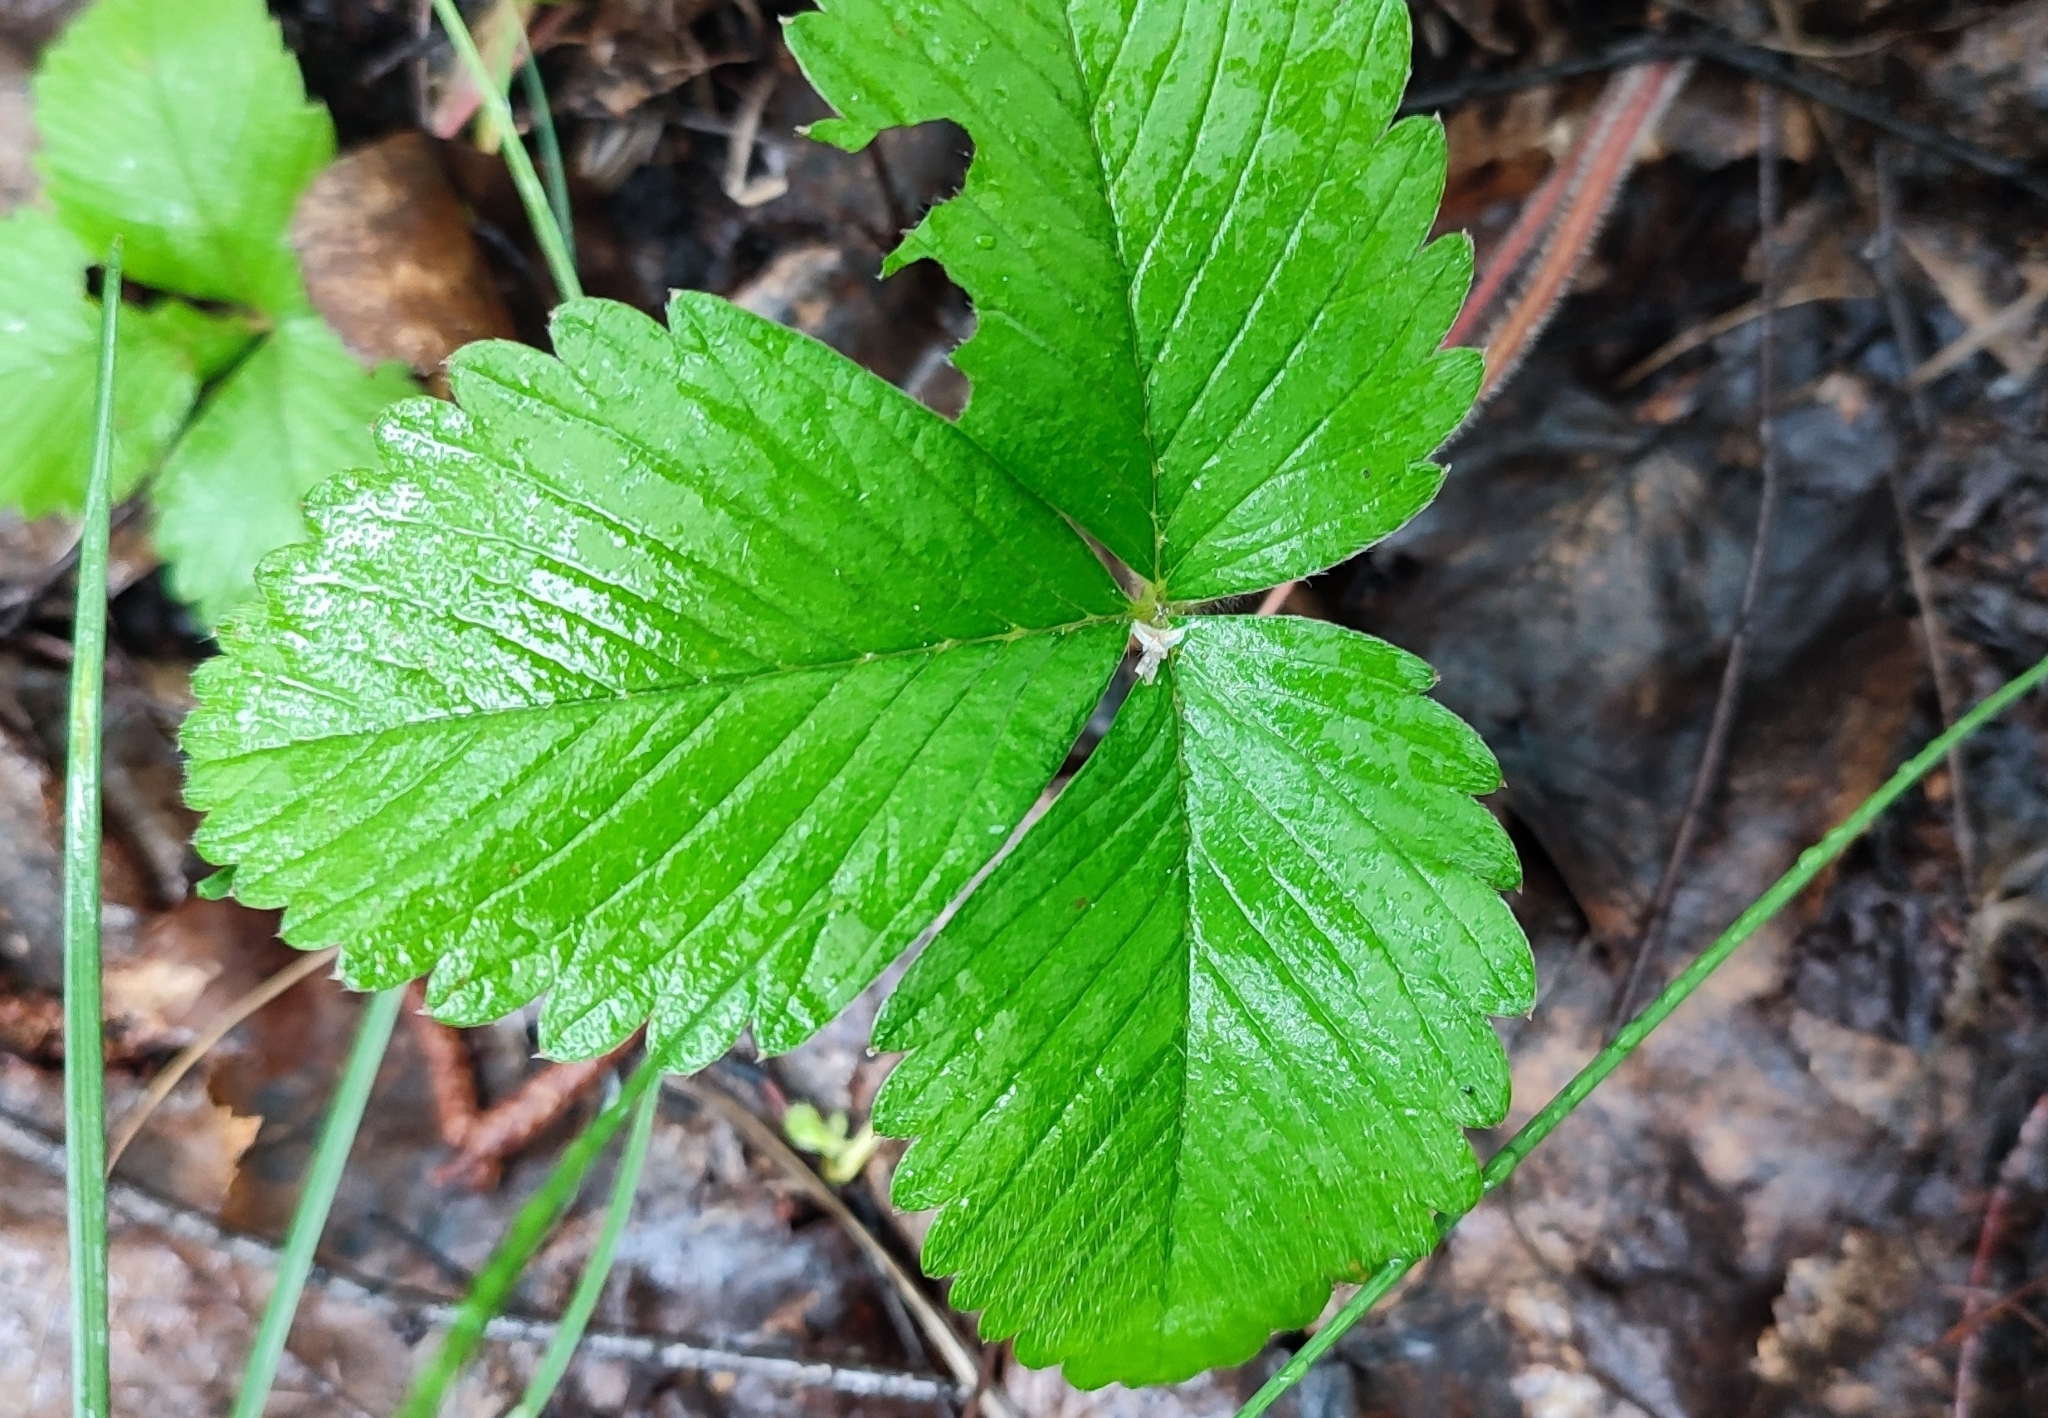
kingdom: Plantae
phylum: Tracheophyta
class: Magnoliopsida
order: Rosales
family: Rosaceae
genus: Fragaria
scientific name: Fragaria viridis
